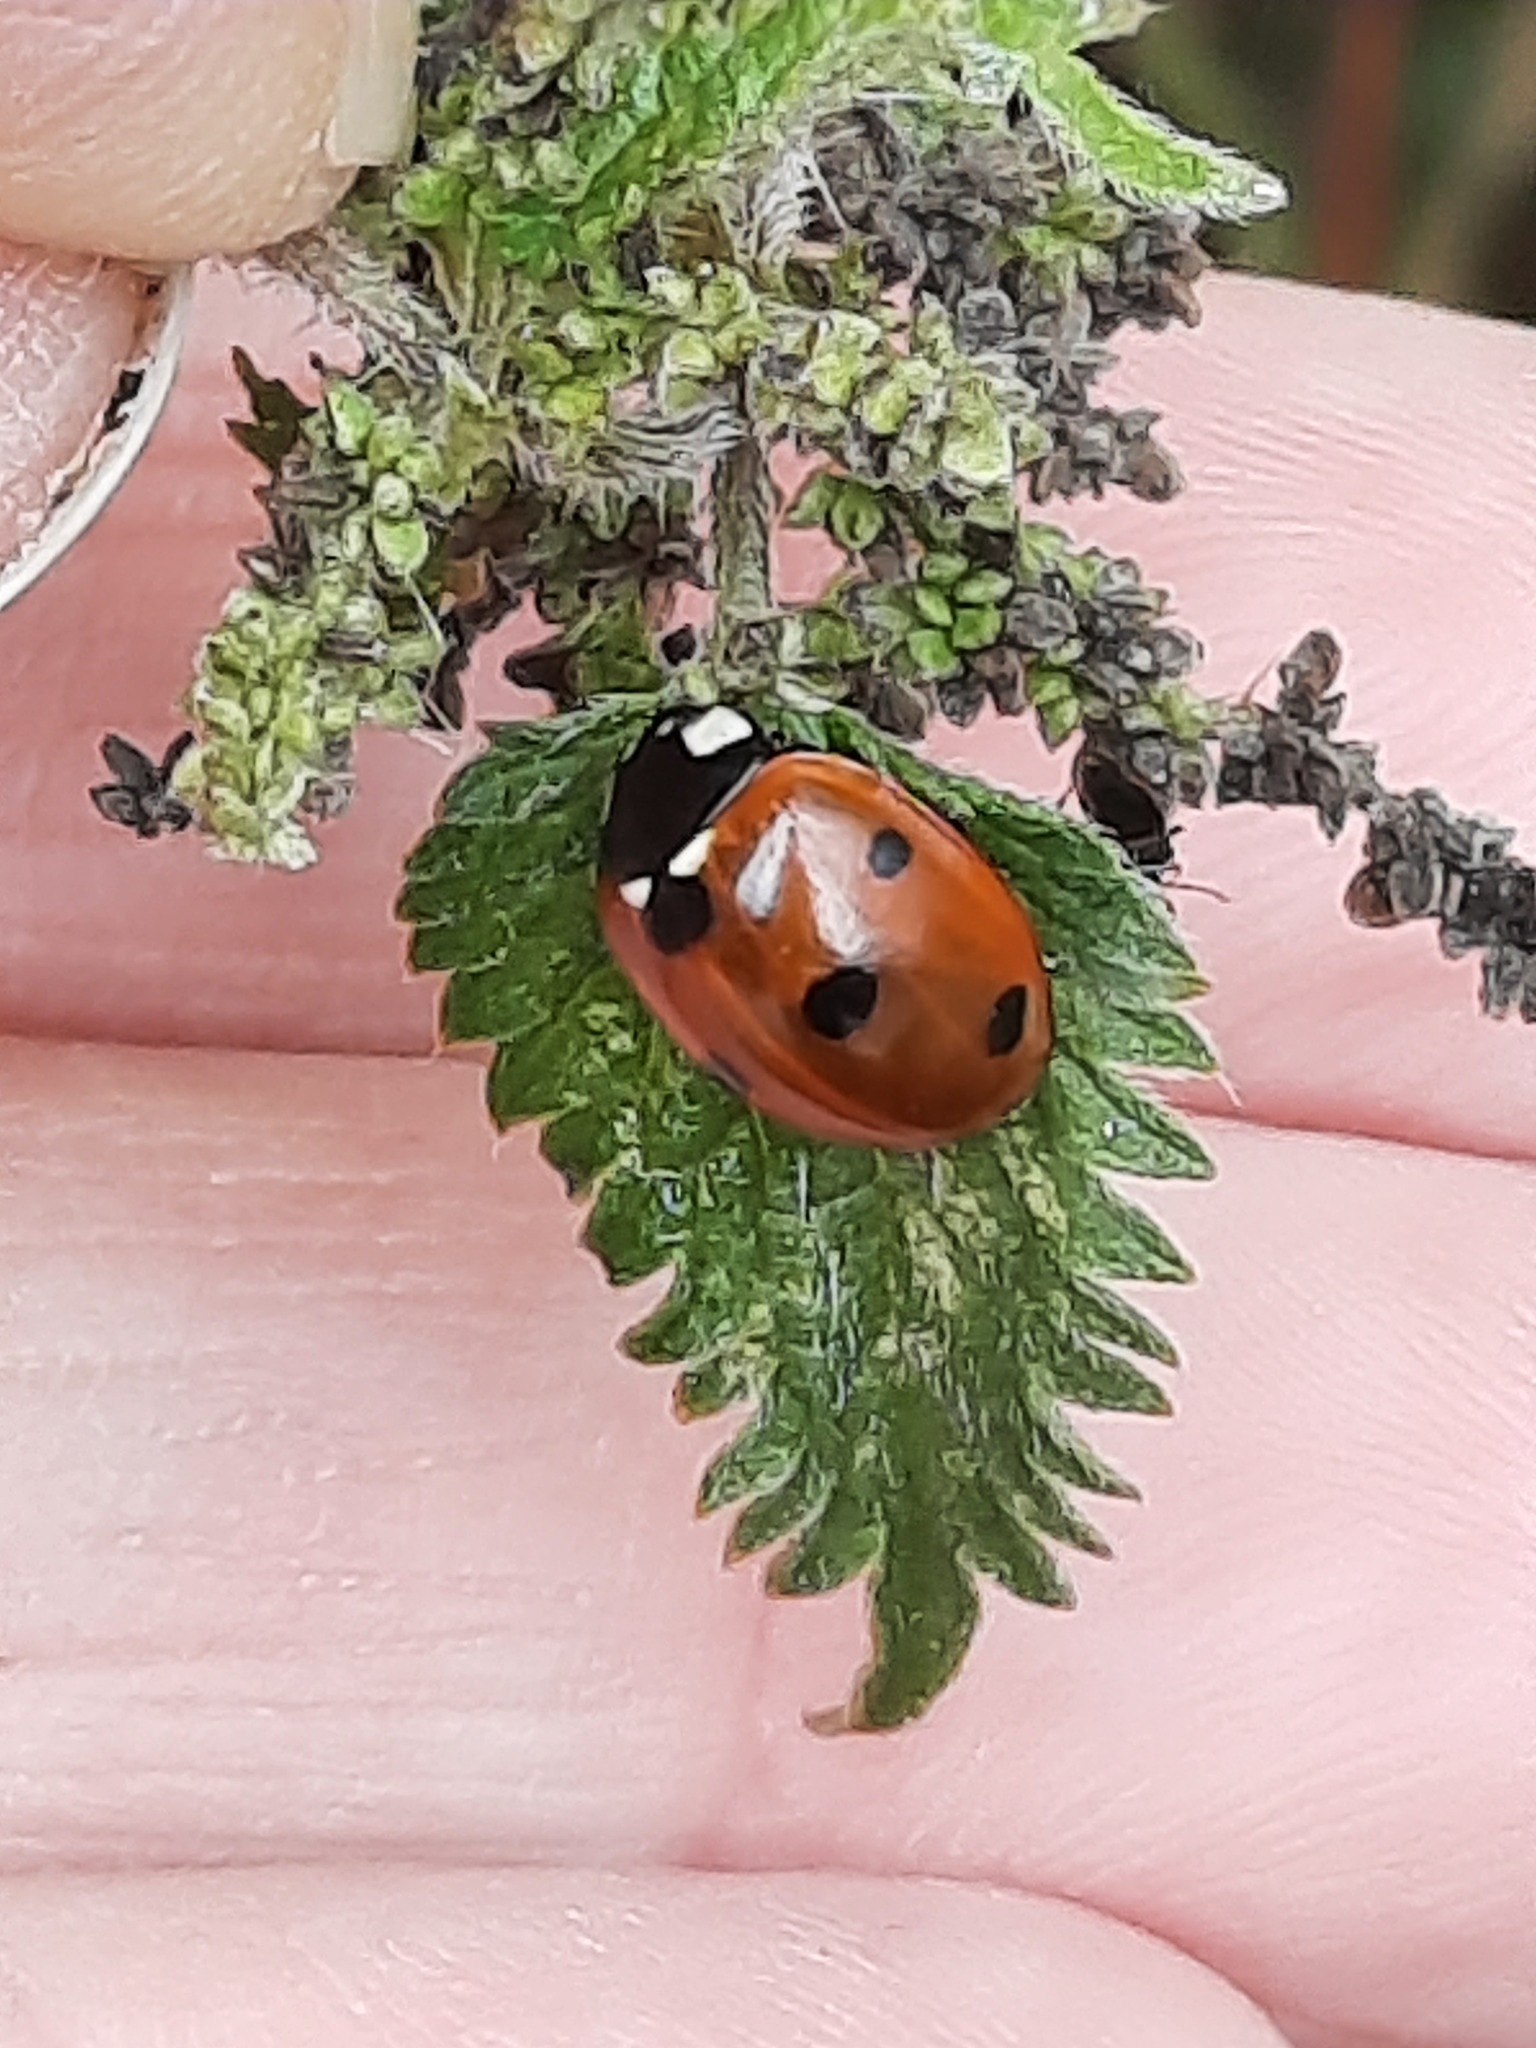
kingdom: Animalia
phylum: Arthropoda
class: Insecta
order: Coleoptera
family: Coccinellidae
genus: Coccinella
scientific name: Coccinella septempunctata
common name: Sevenspotted lady beetle
